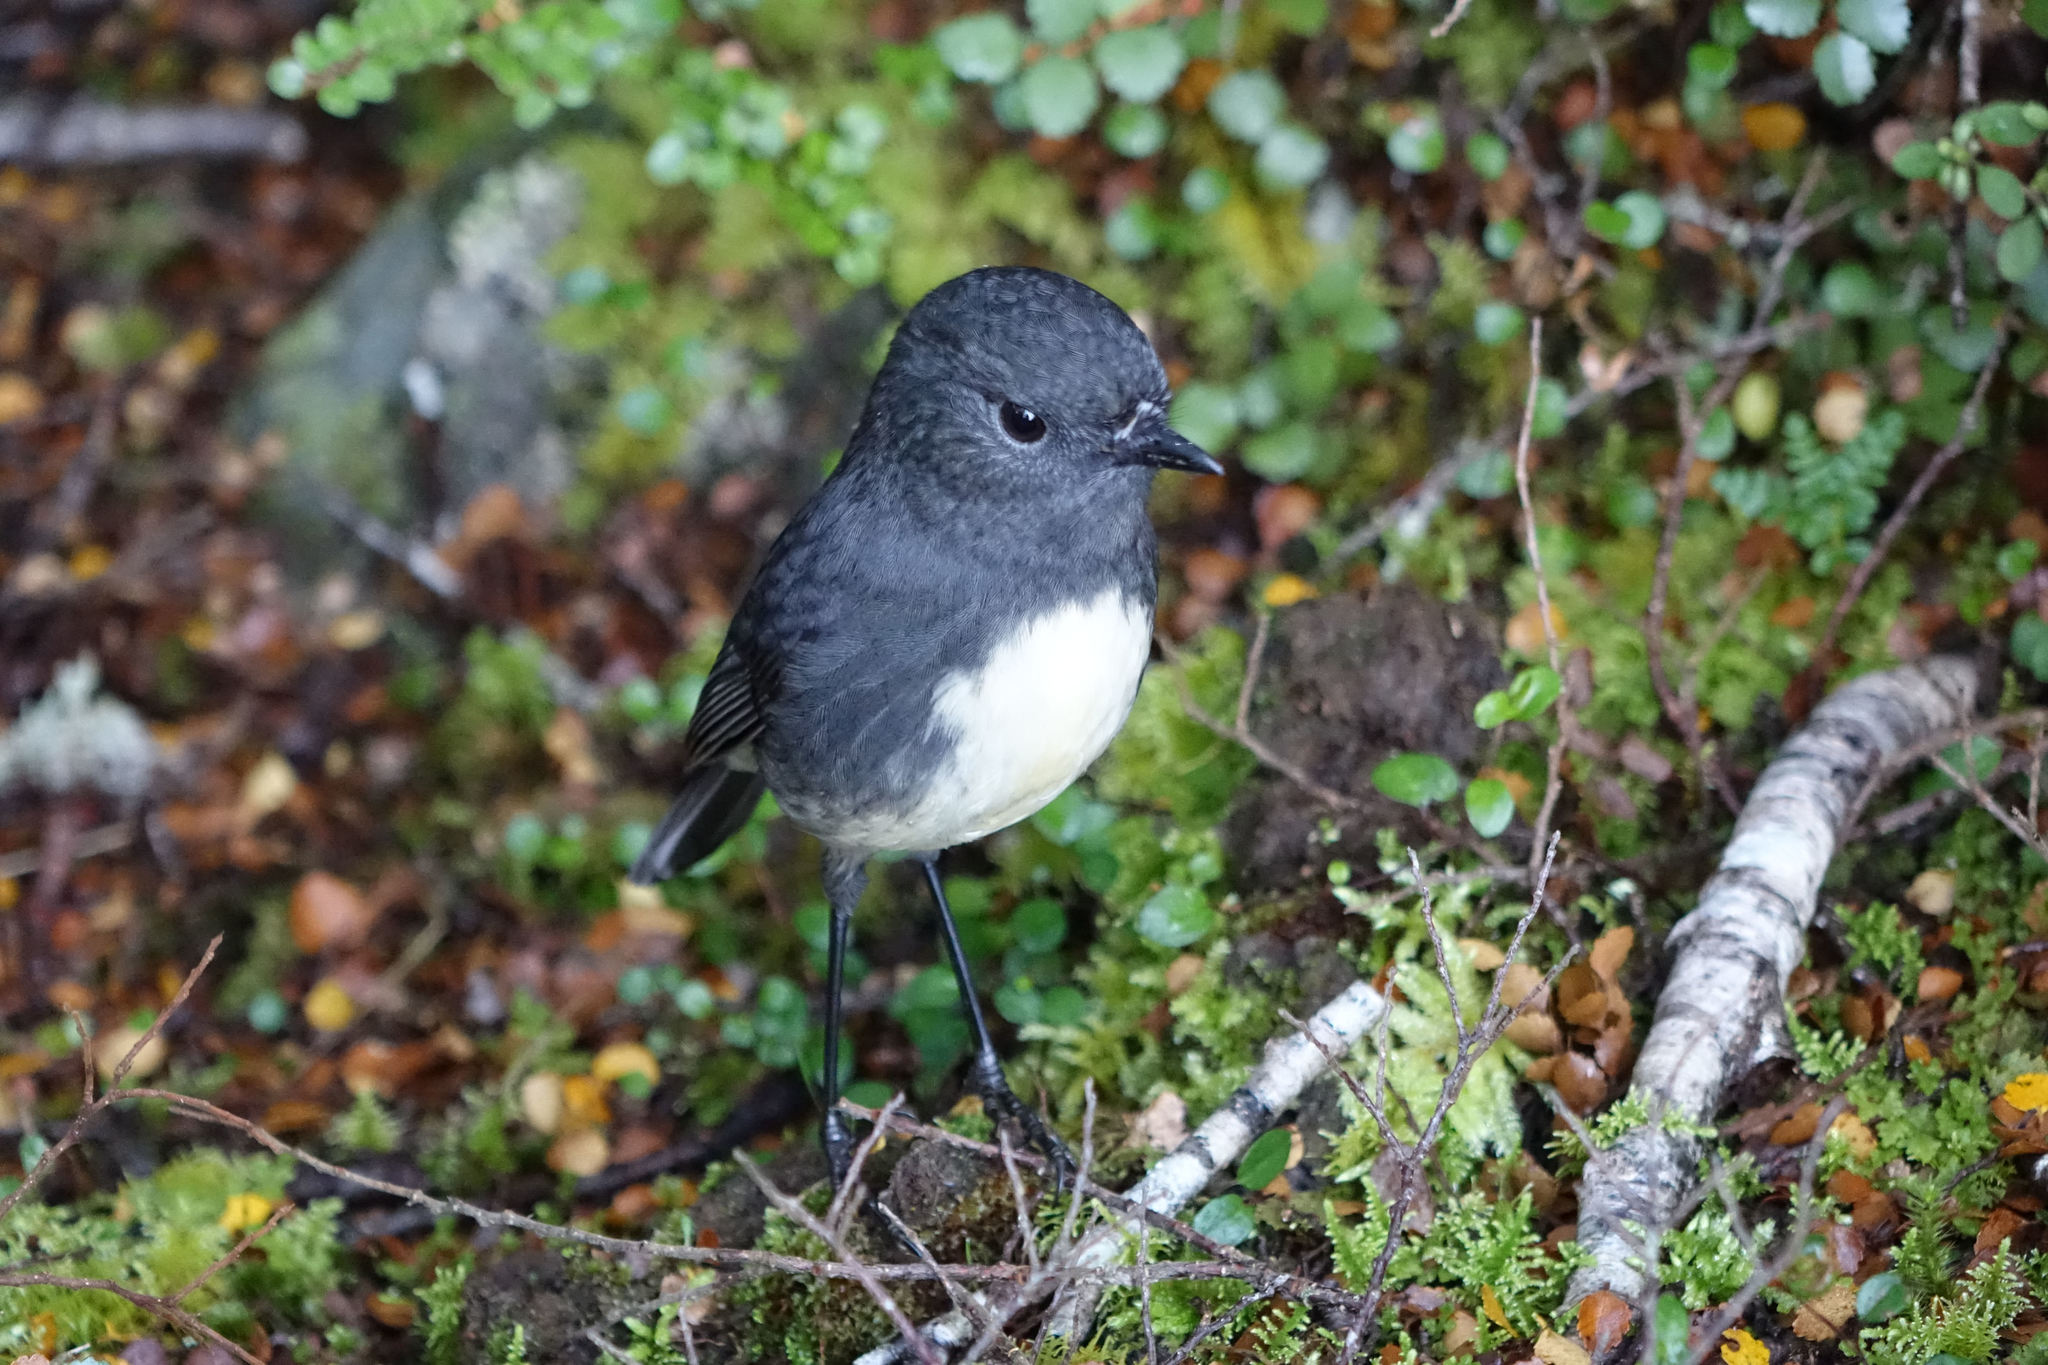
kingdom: Animalia
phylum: Chordata
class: Aves
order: Passeriformes
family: Petroicidae
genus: Petroica
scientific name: Petroica australis
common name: New zealand robin
